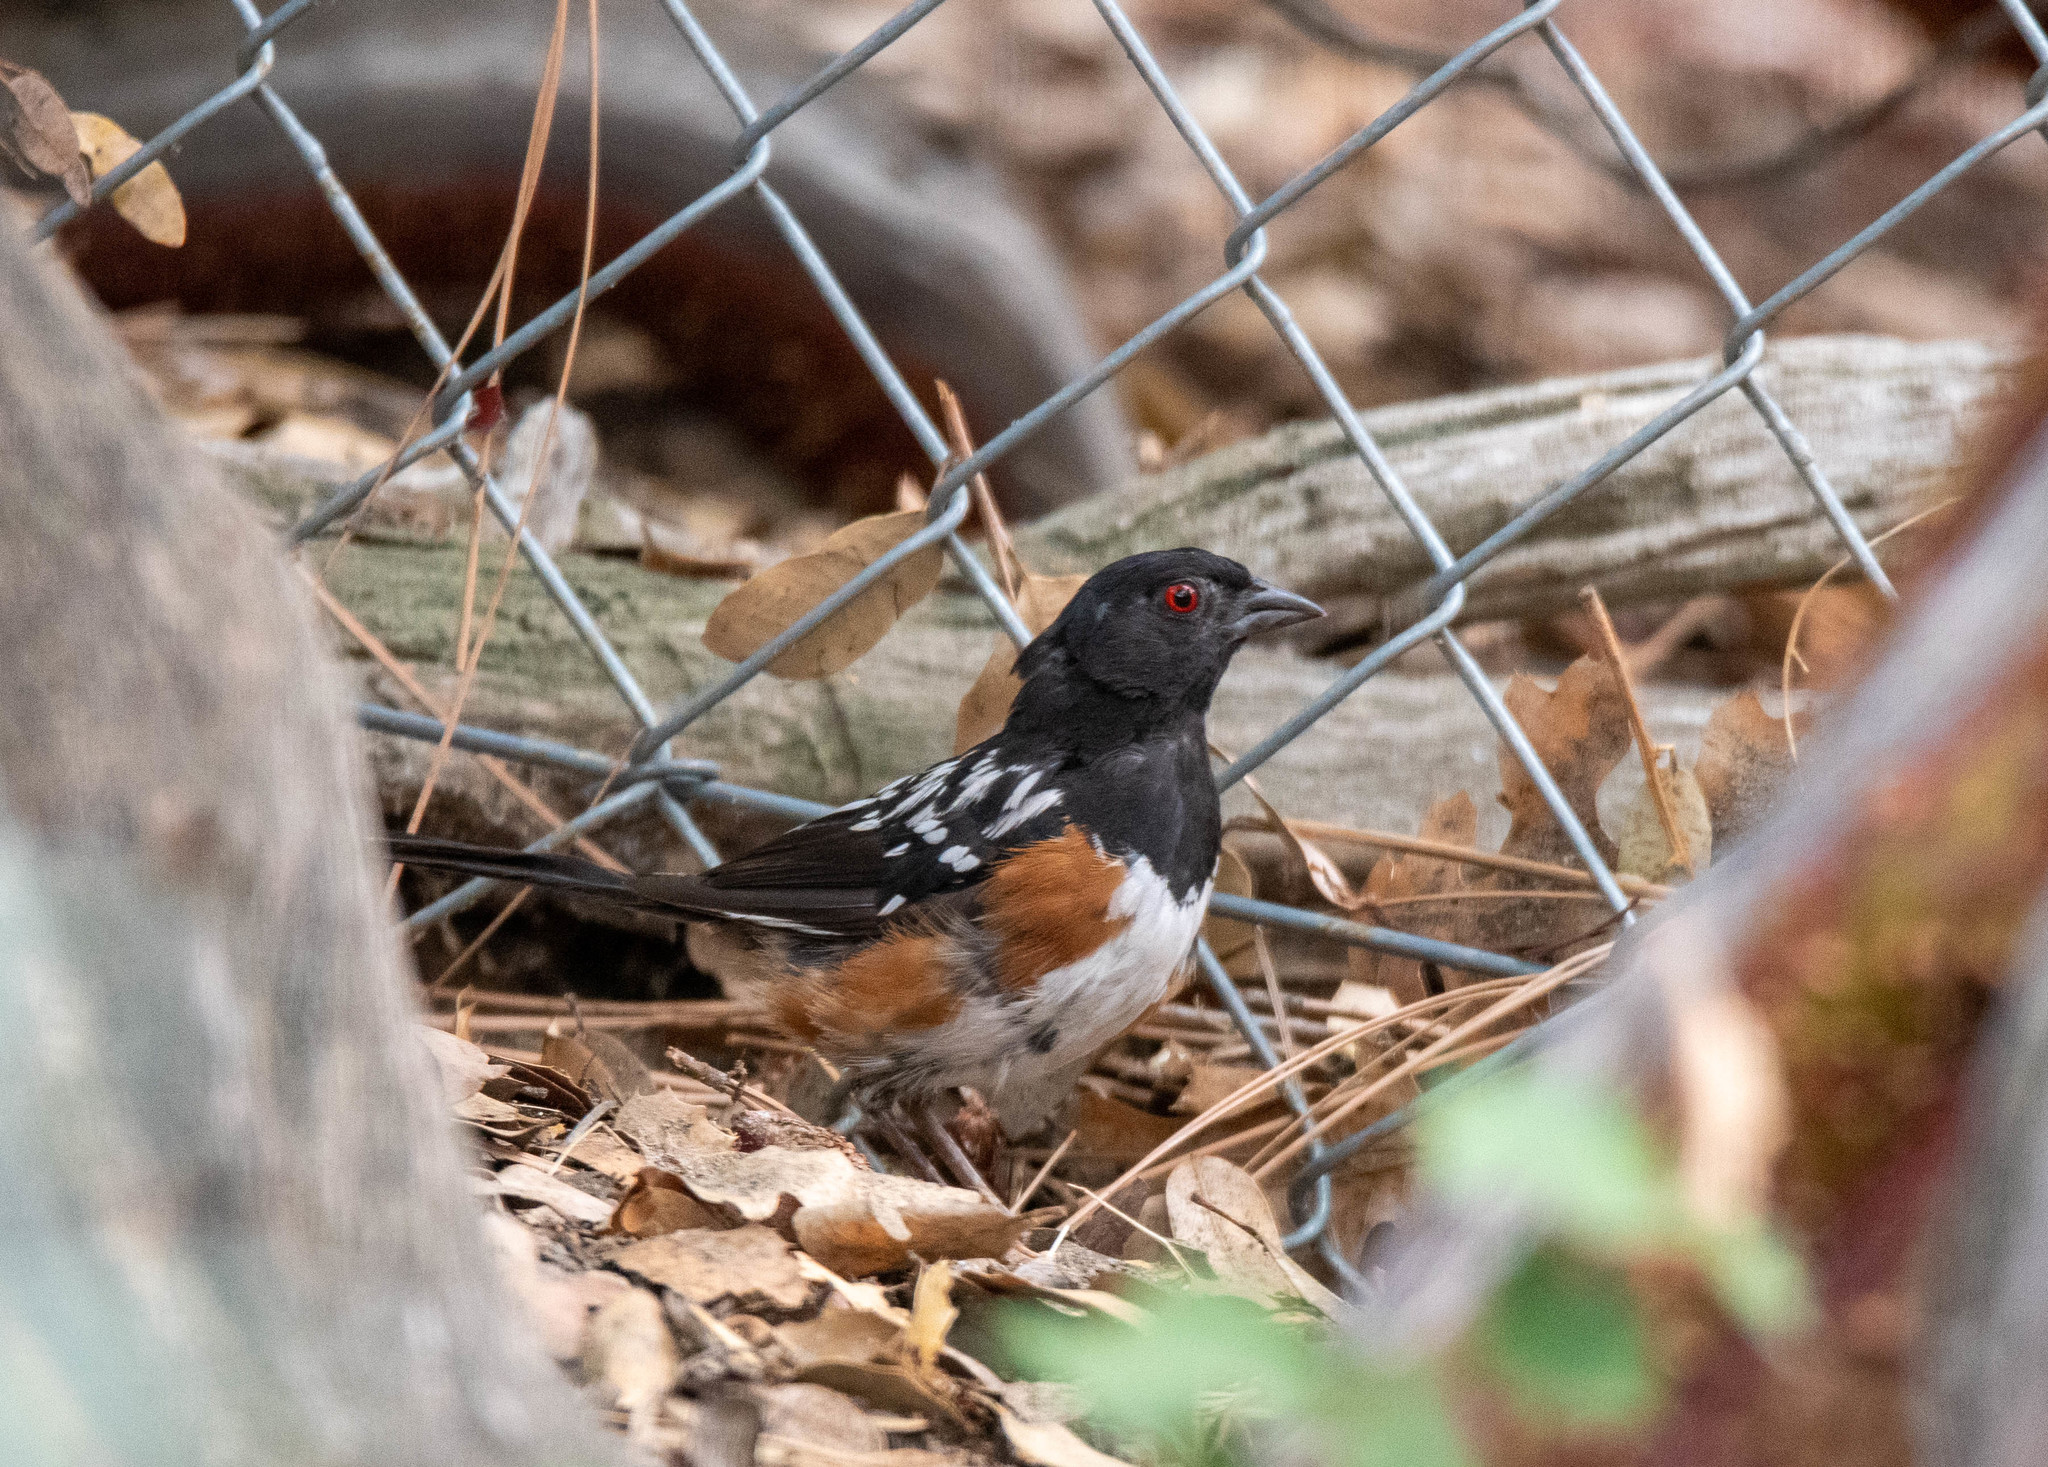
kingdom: Animalia
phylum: Chordata
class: Aves
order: Passeriformes
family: Passerellidae
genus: Pipilo
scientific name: Pipilo maculatus
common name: Spotted towhee
